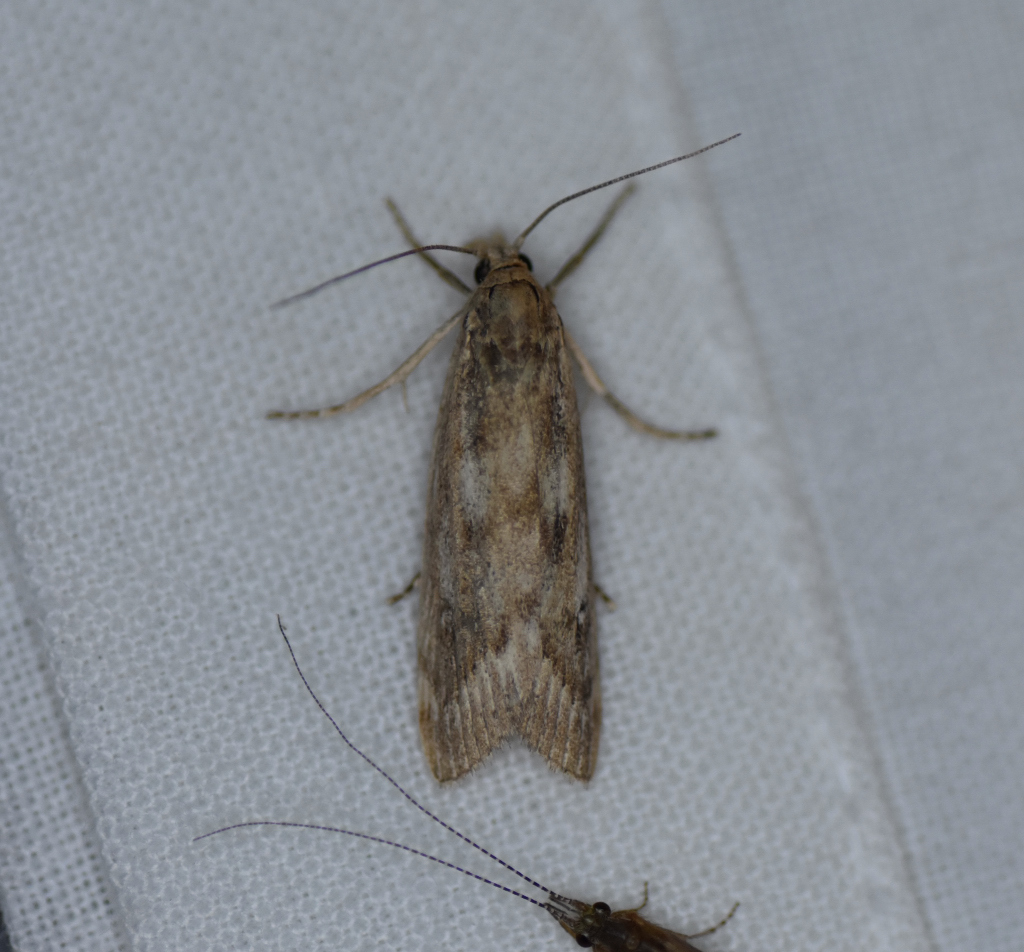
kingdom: Animalia
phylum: Arthropoda
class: Insecta
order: Lepidoptera
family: Crambidae
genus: Occidentalia
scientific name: Occidentalia comptulatalis
